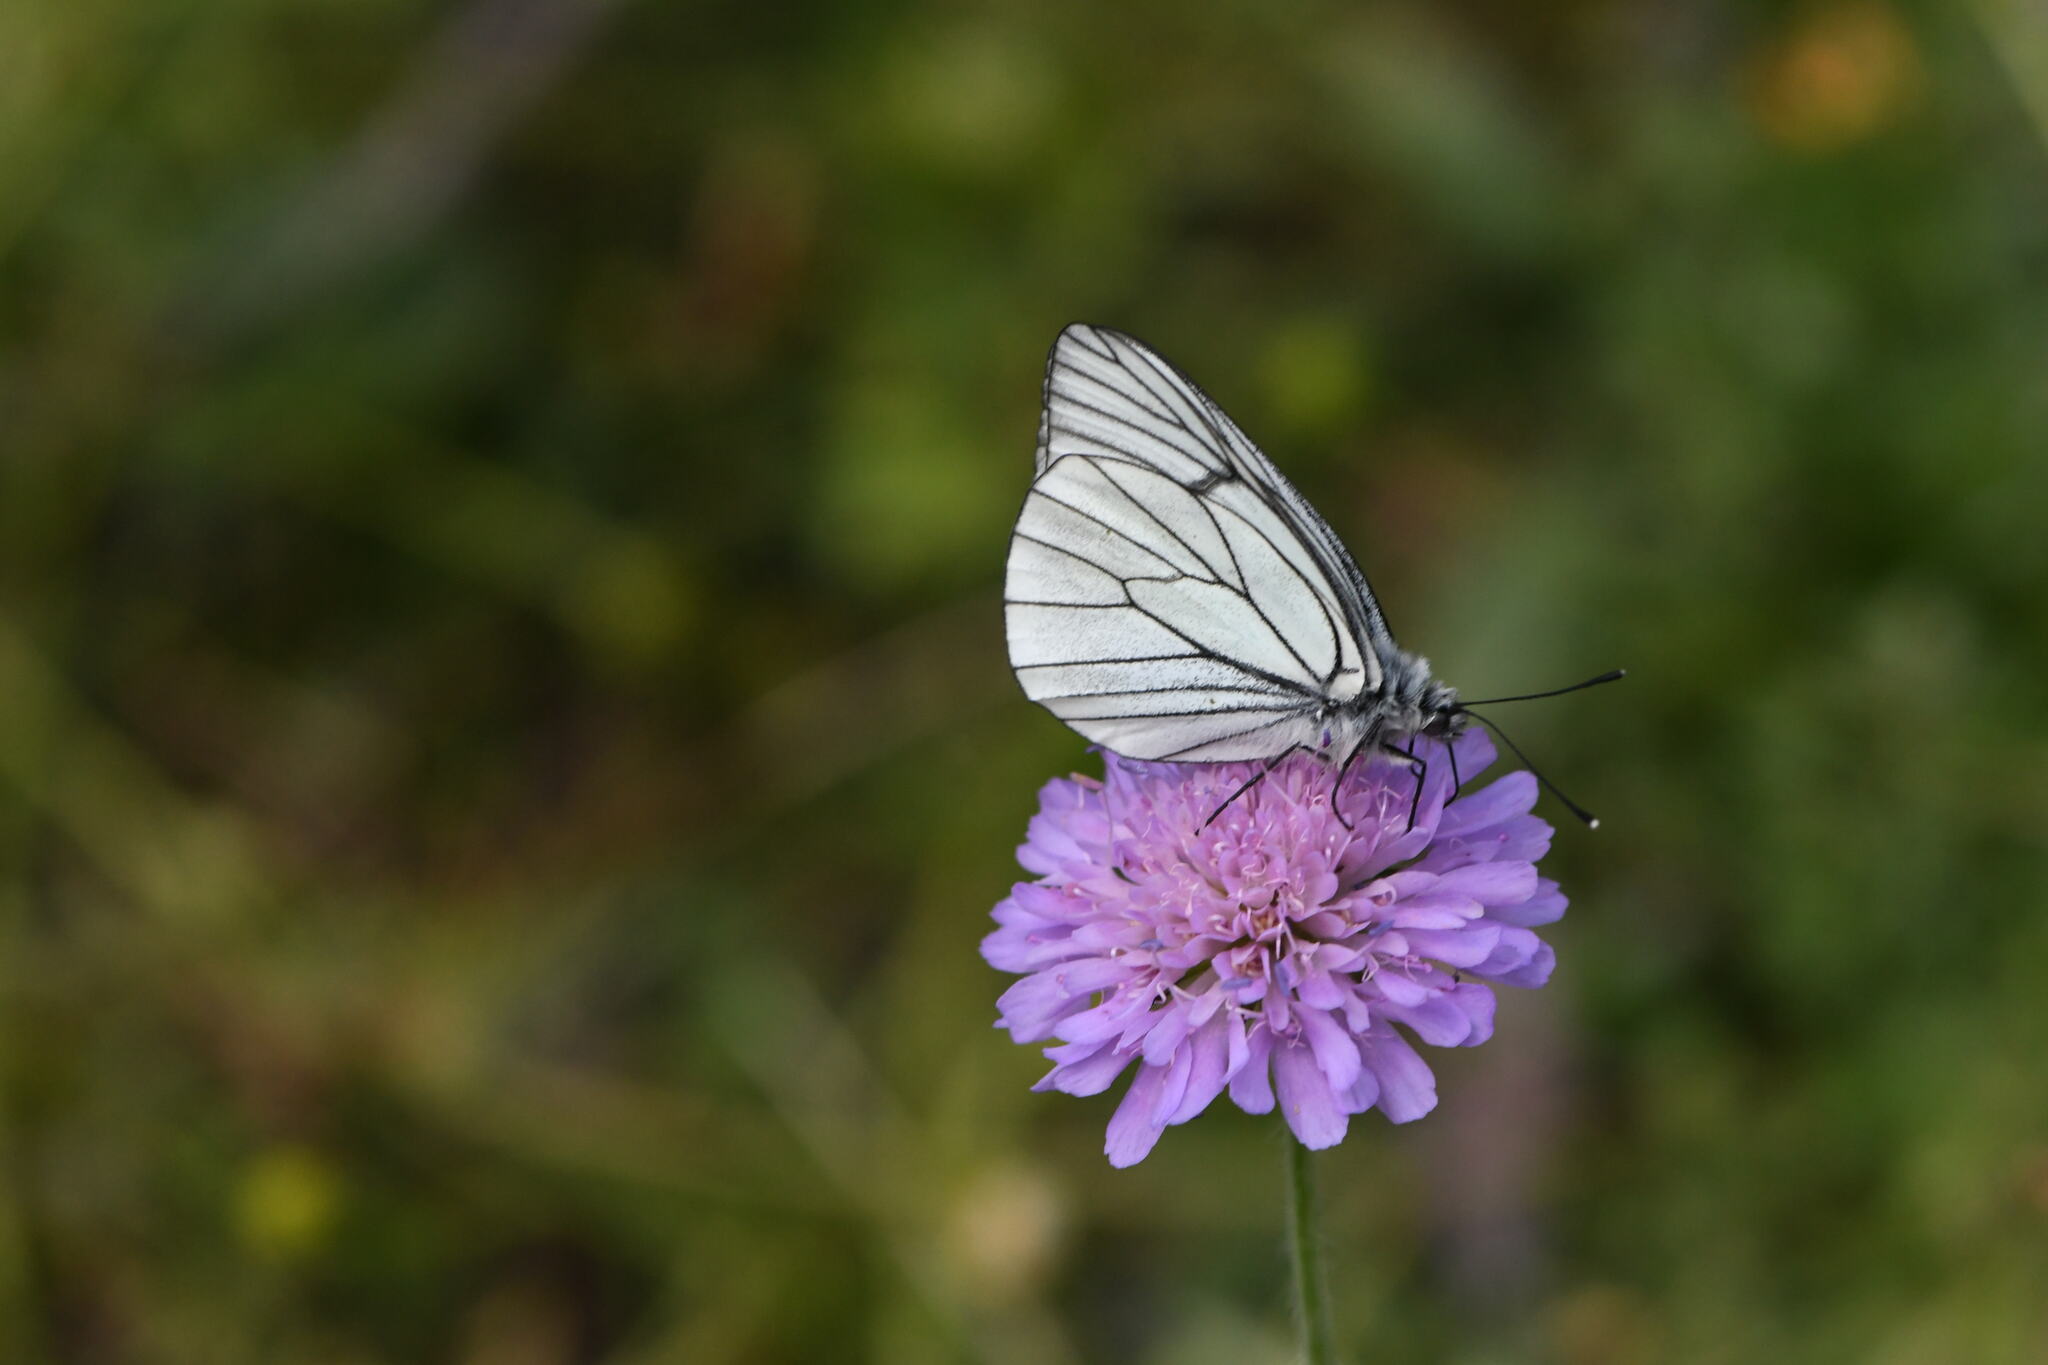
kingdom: Animalia
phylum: Arthropoda
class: Insecta
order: Lepidoptera
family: Pieridae
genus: Aporia
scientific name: Aporia crataegi
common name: Black-veined white
